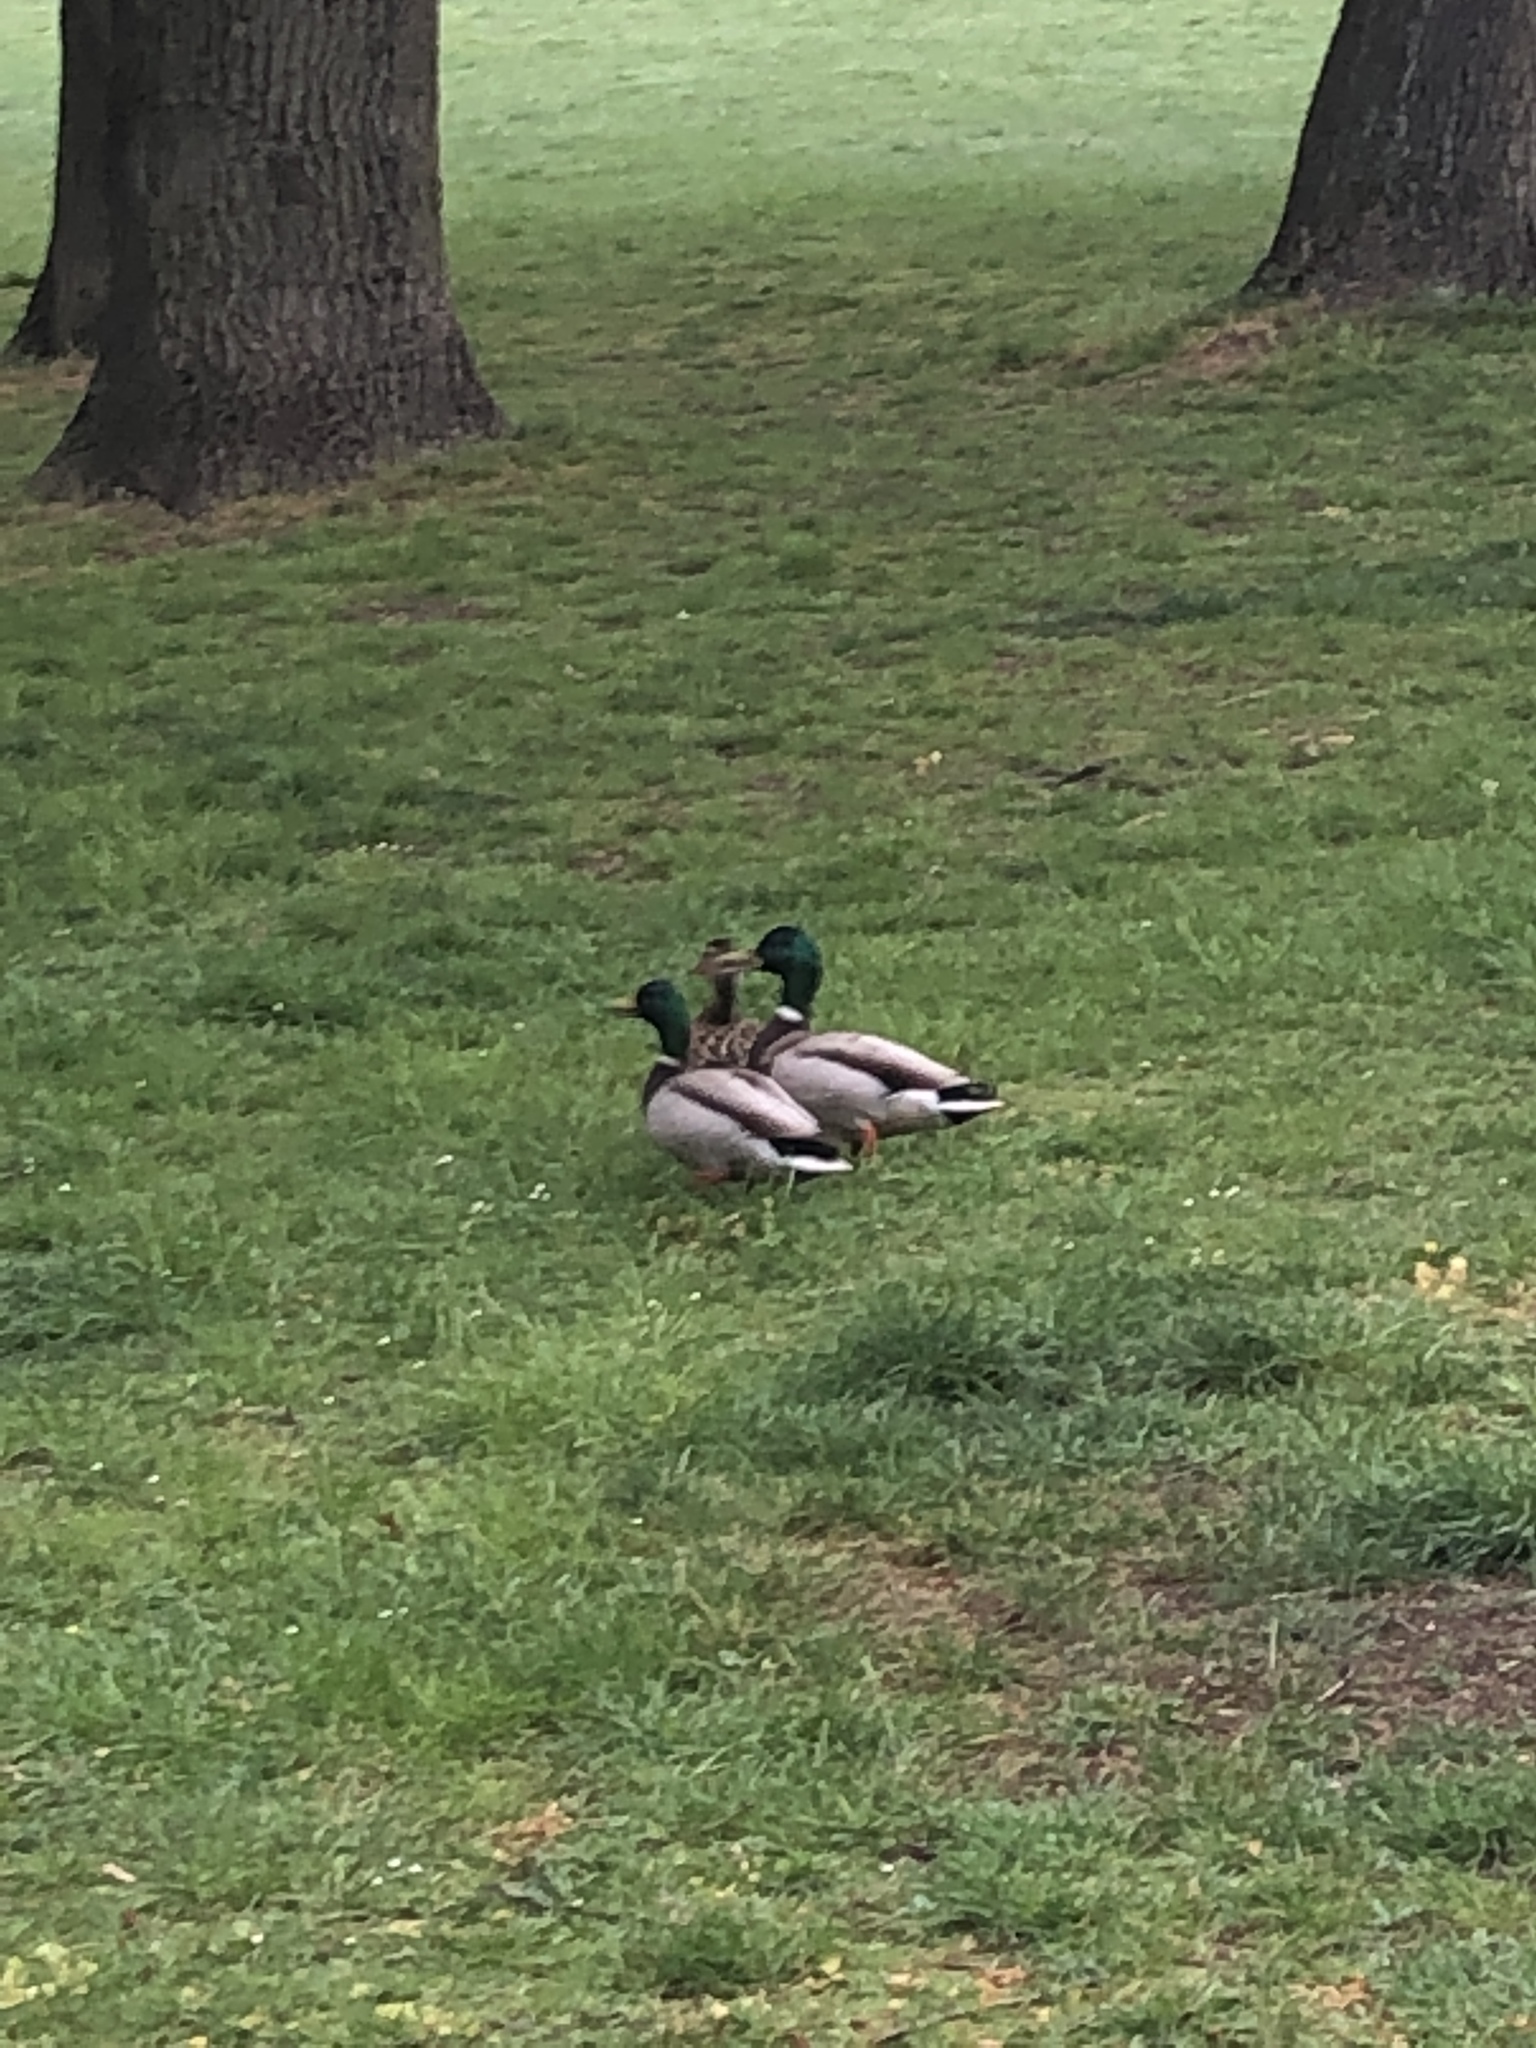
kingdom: Animalia
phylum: Chordata
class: Aves
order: Anseriformes
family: Anatidae
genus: Anas
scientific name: Anas platyrhynchos
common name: Mallard
